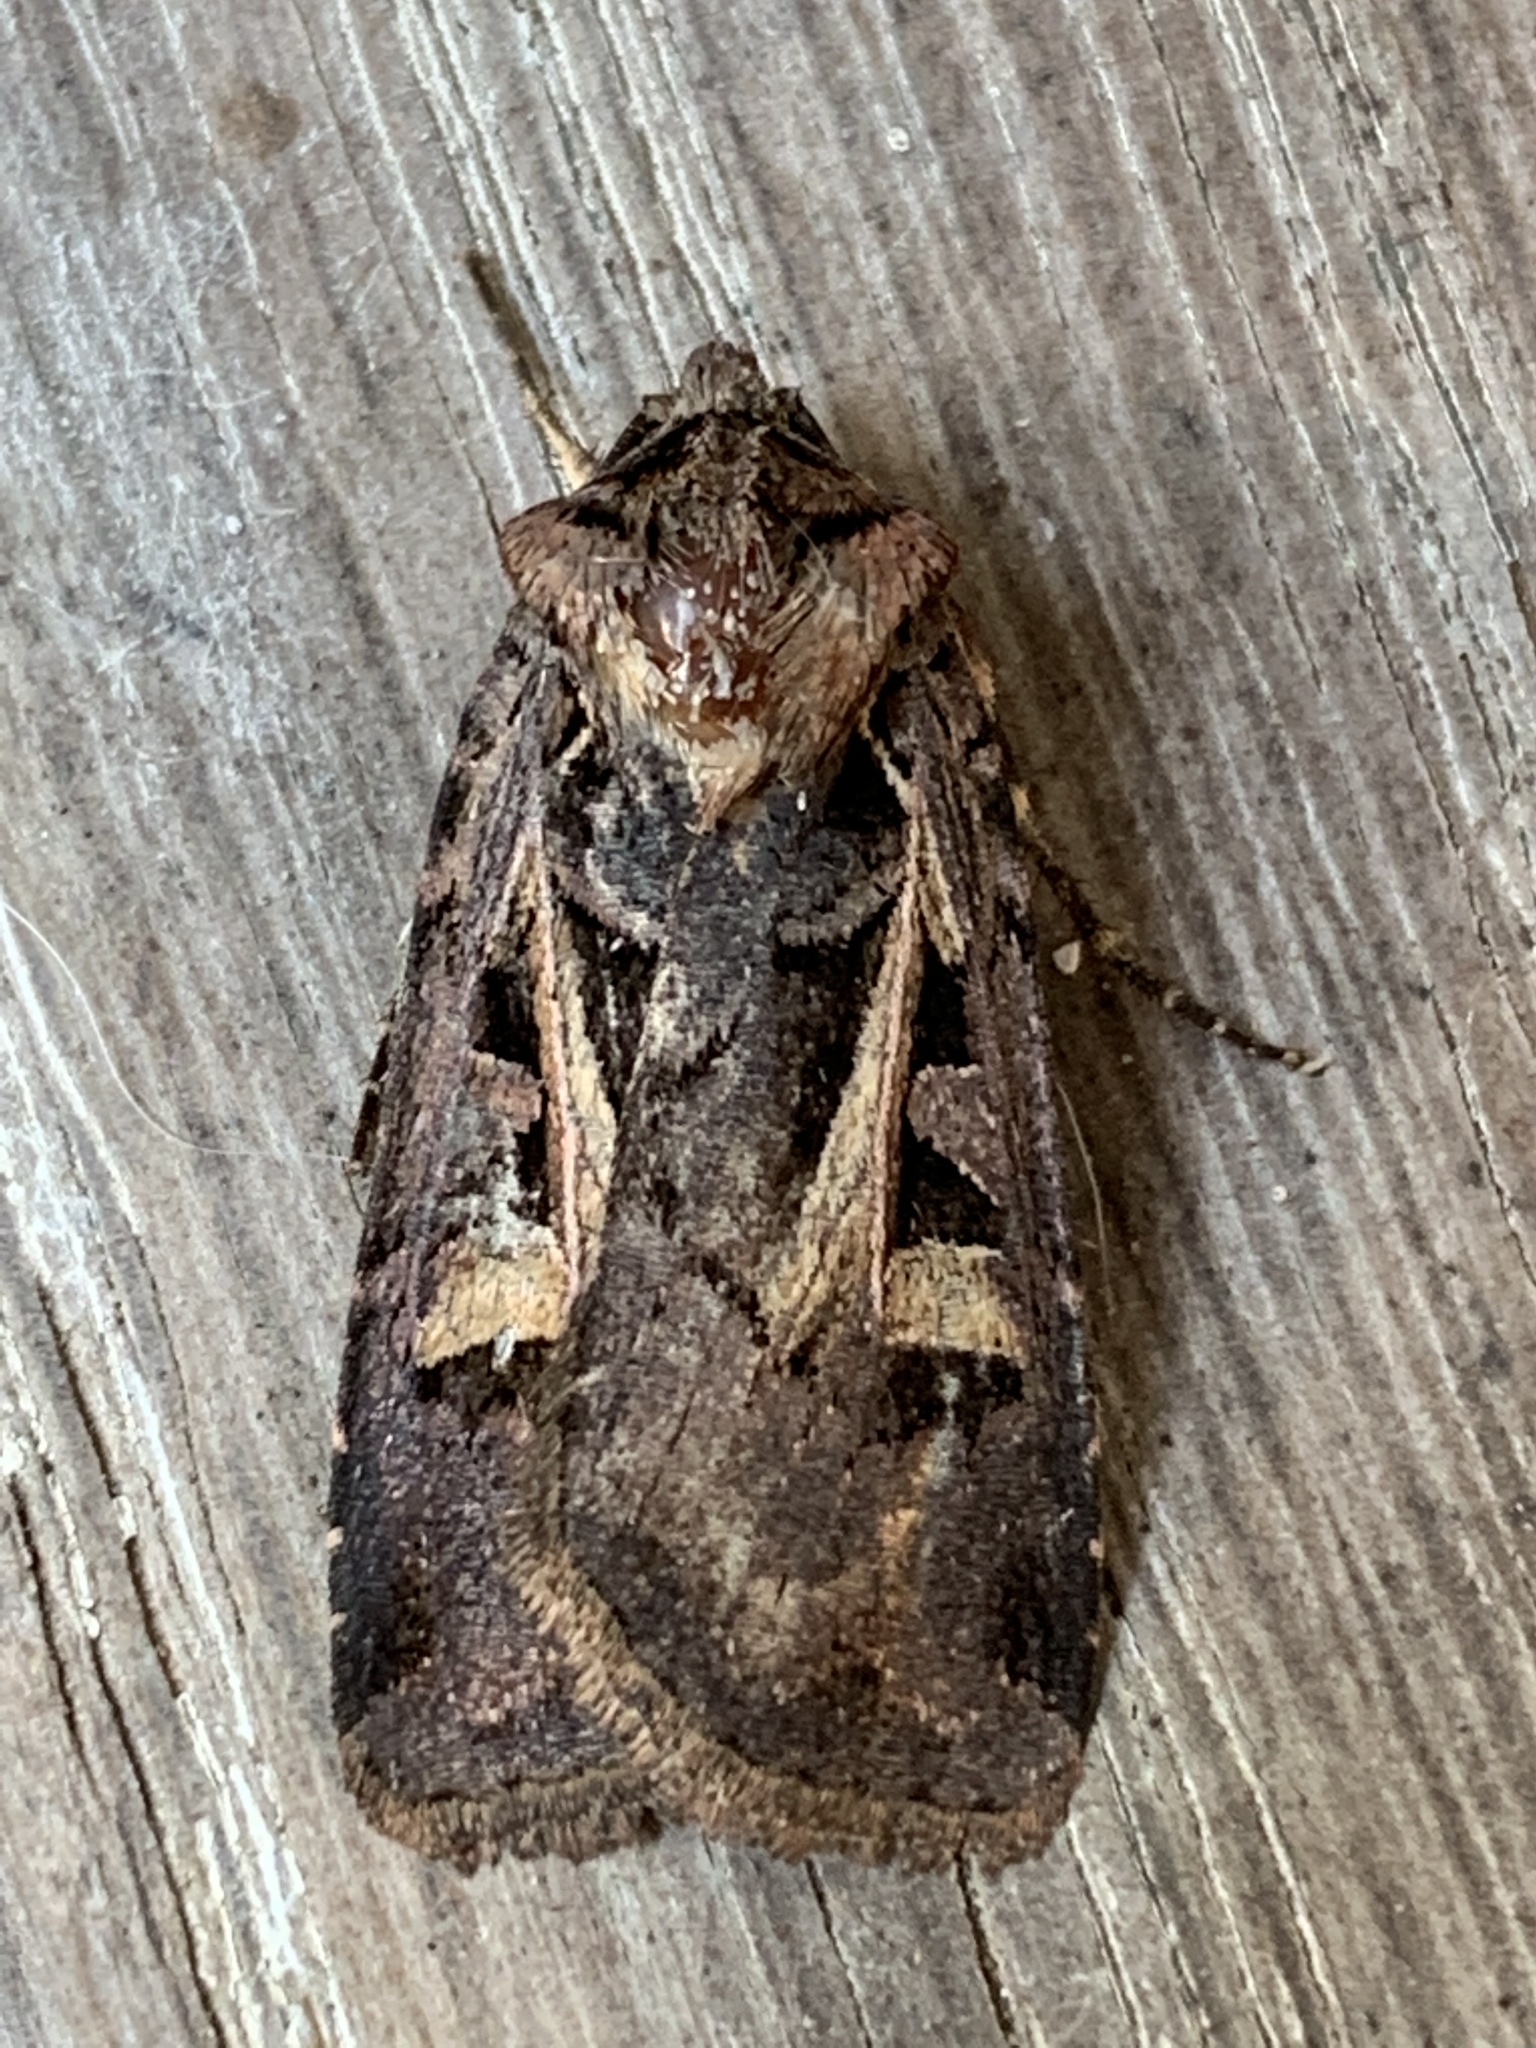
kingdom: Animalia
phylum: Arthropoda
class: Insecta
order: Lepidoptera
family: Noctuidae
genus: Feltia
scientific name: Feltia herilis
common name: Master's dart
